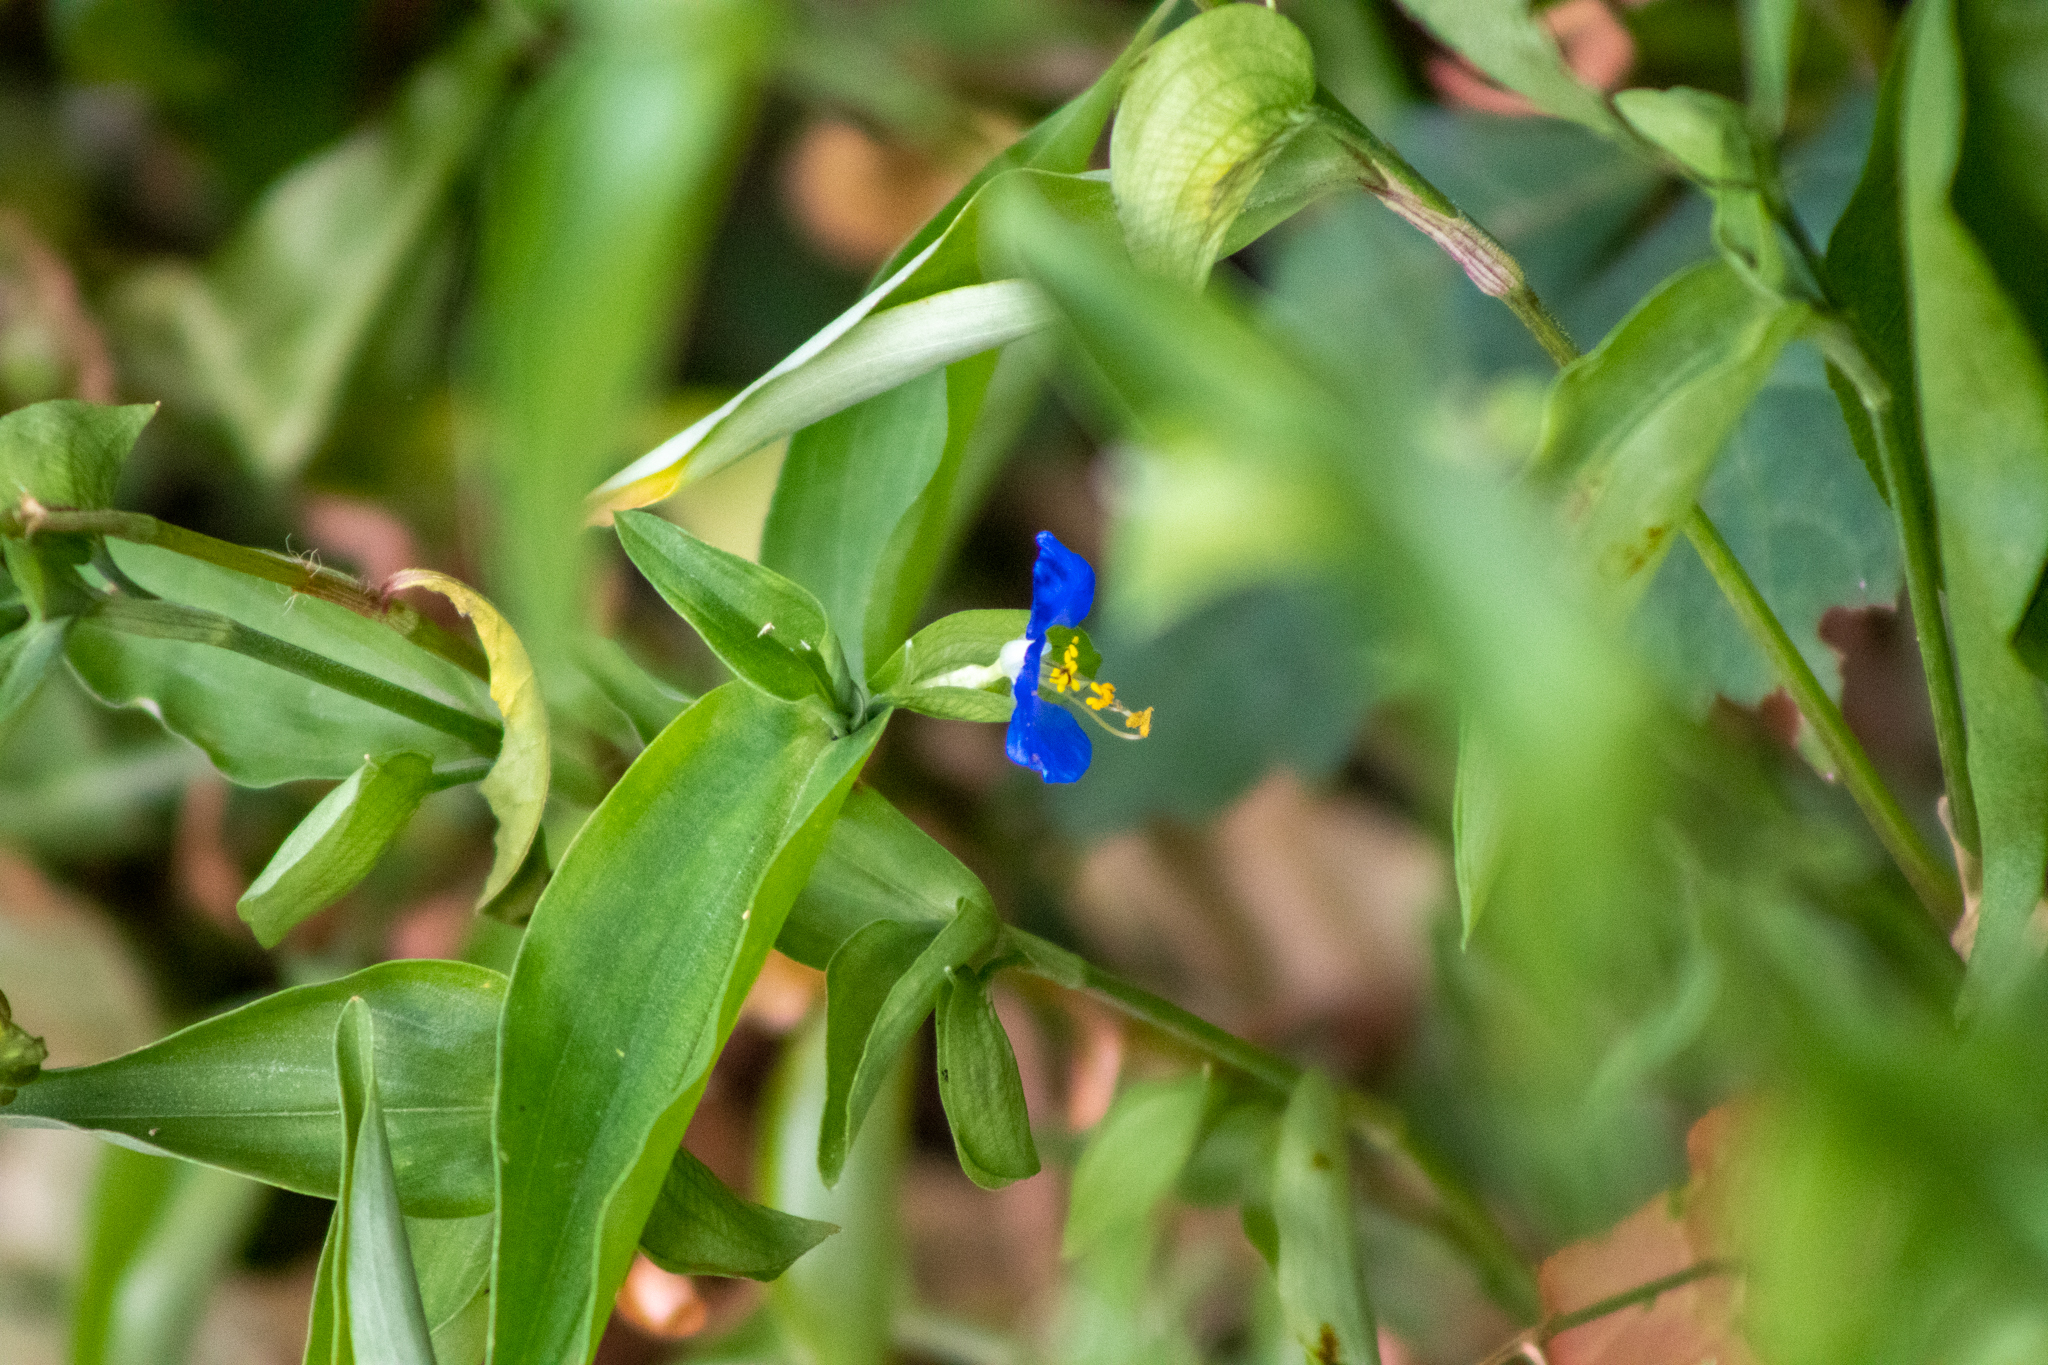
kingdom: Plantae
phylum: Tracheophyta
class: Liliopsida
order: Commelinales
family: Commelinaceae
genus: Commelina
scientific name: Commelina communis
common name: Asiatic dayflower
